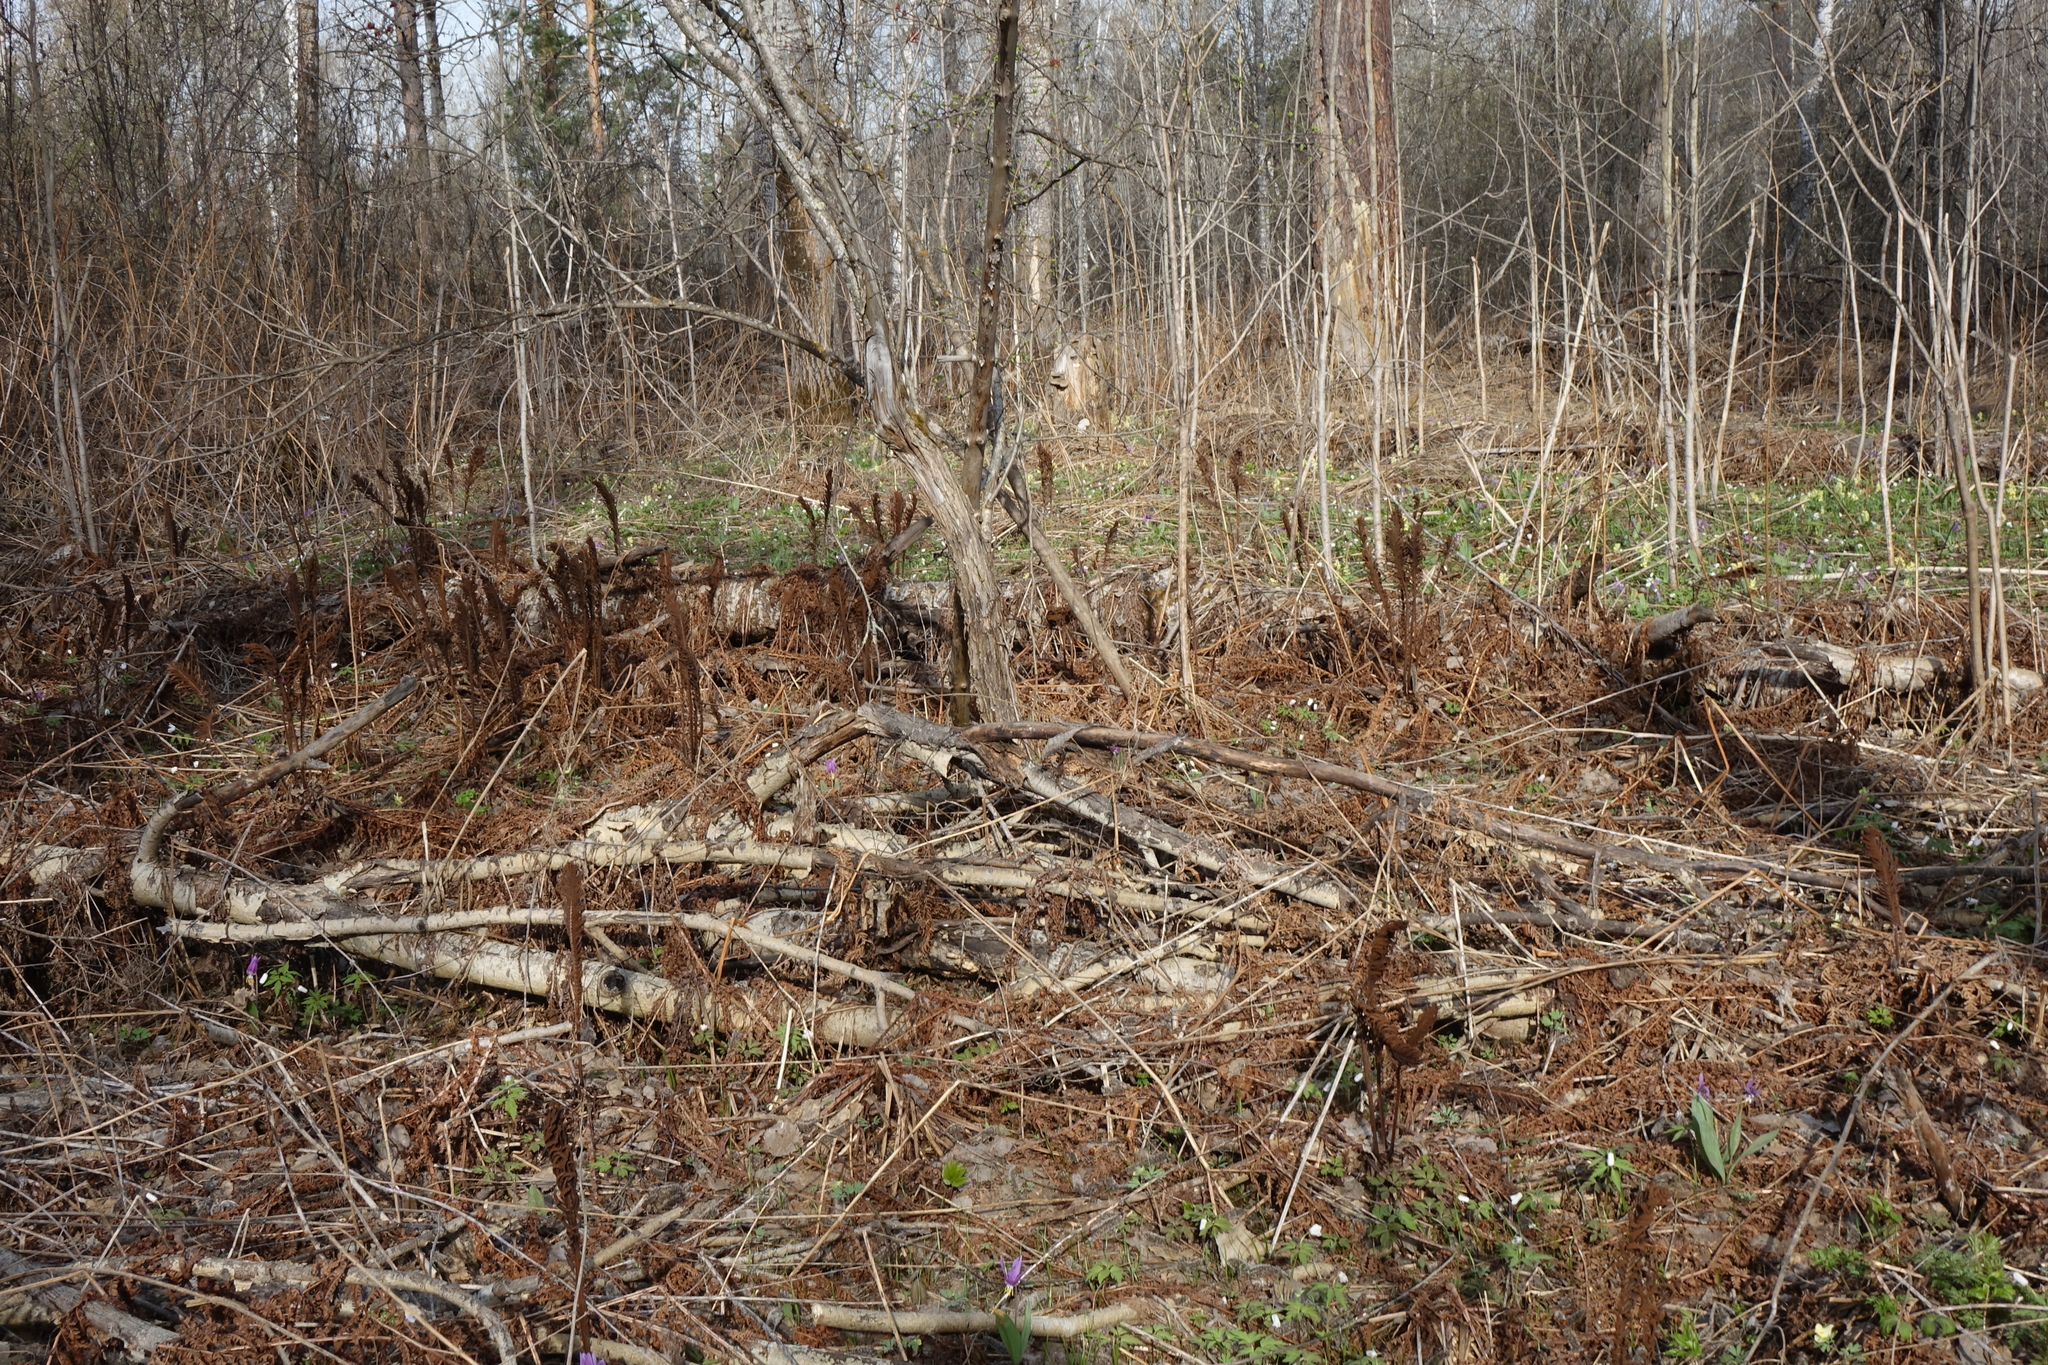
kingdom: Plantae
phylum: Tracheophyta
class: Polypodiopsida
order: Polypodiales
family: Onocleaceae
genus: Matteuccia
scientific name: Matteuccia struthiopteris
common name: Ostrich fern
